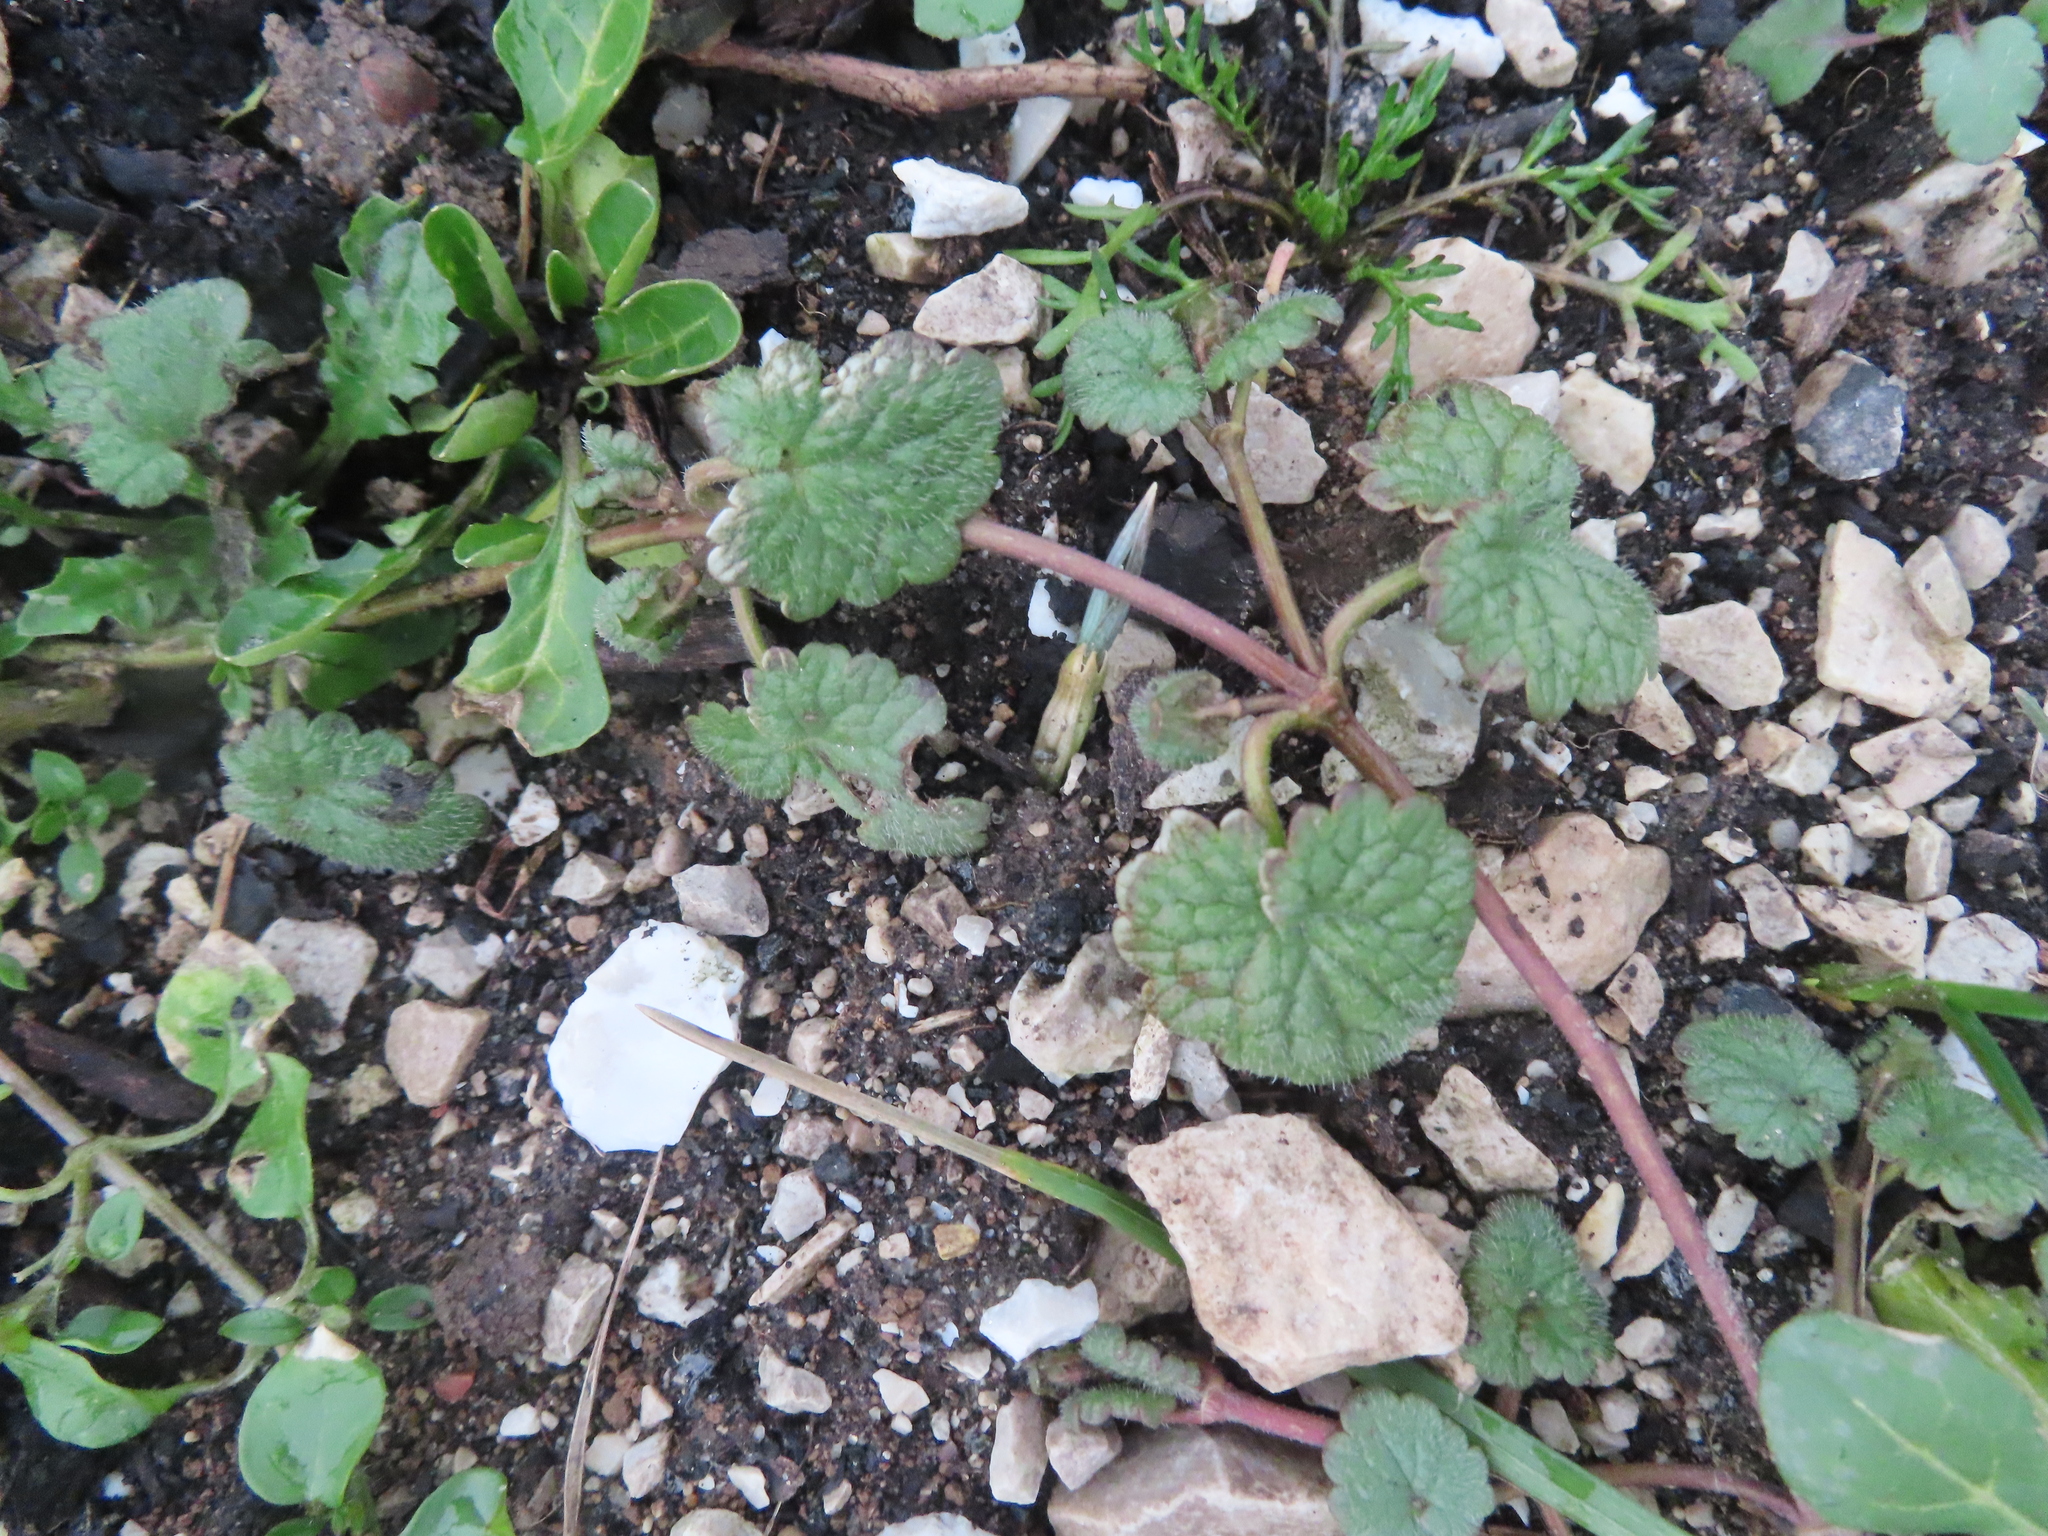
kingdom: Plantae
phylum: Tracheophyta
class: Magnoliopsida
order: Lamiales
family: Lamiaceae
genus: Glechoma
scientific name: Glechoma hederacea
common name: Ground ivy
